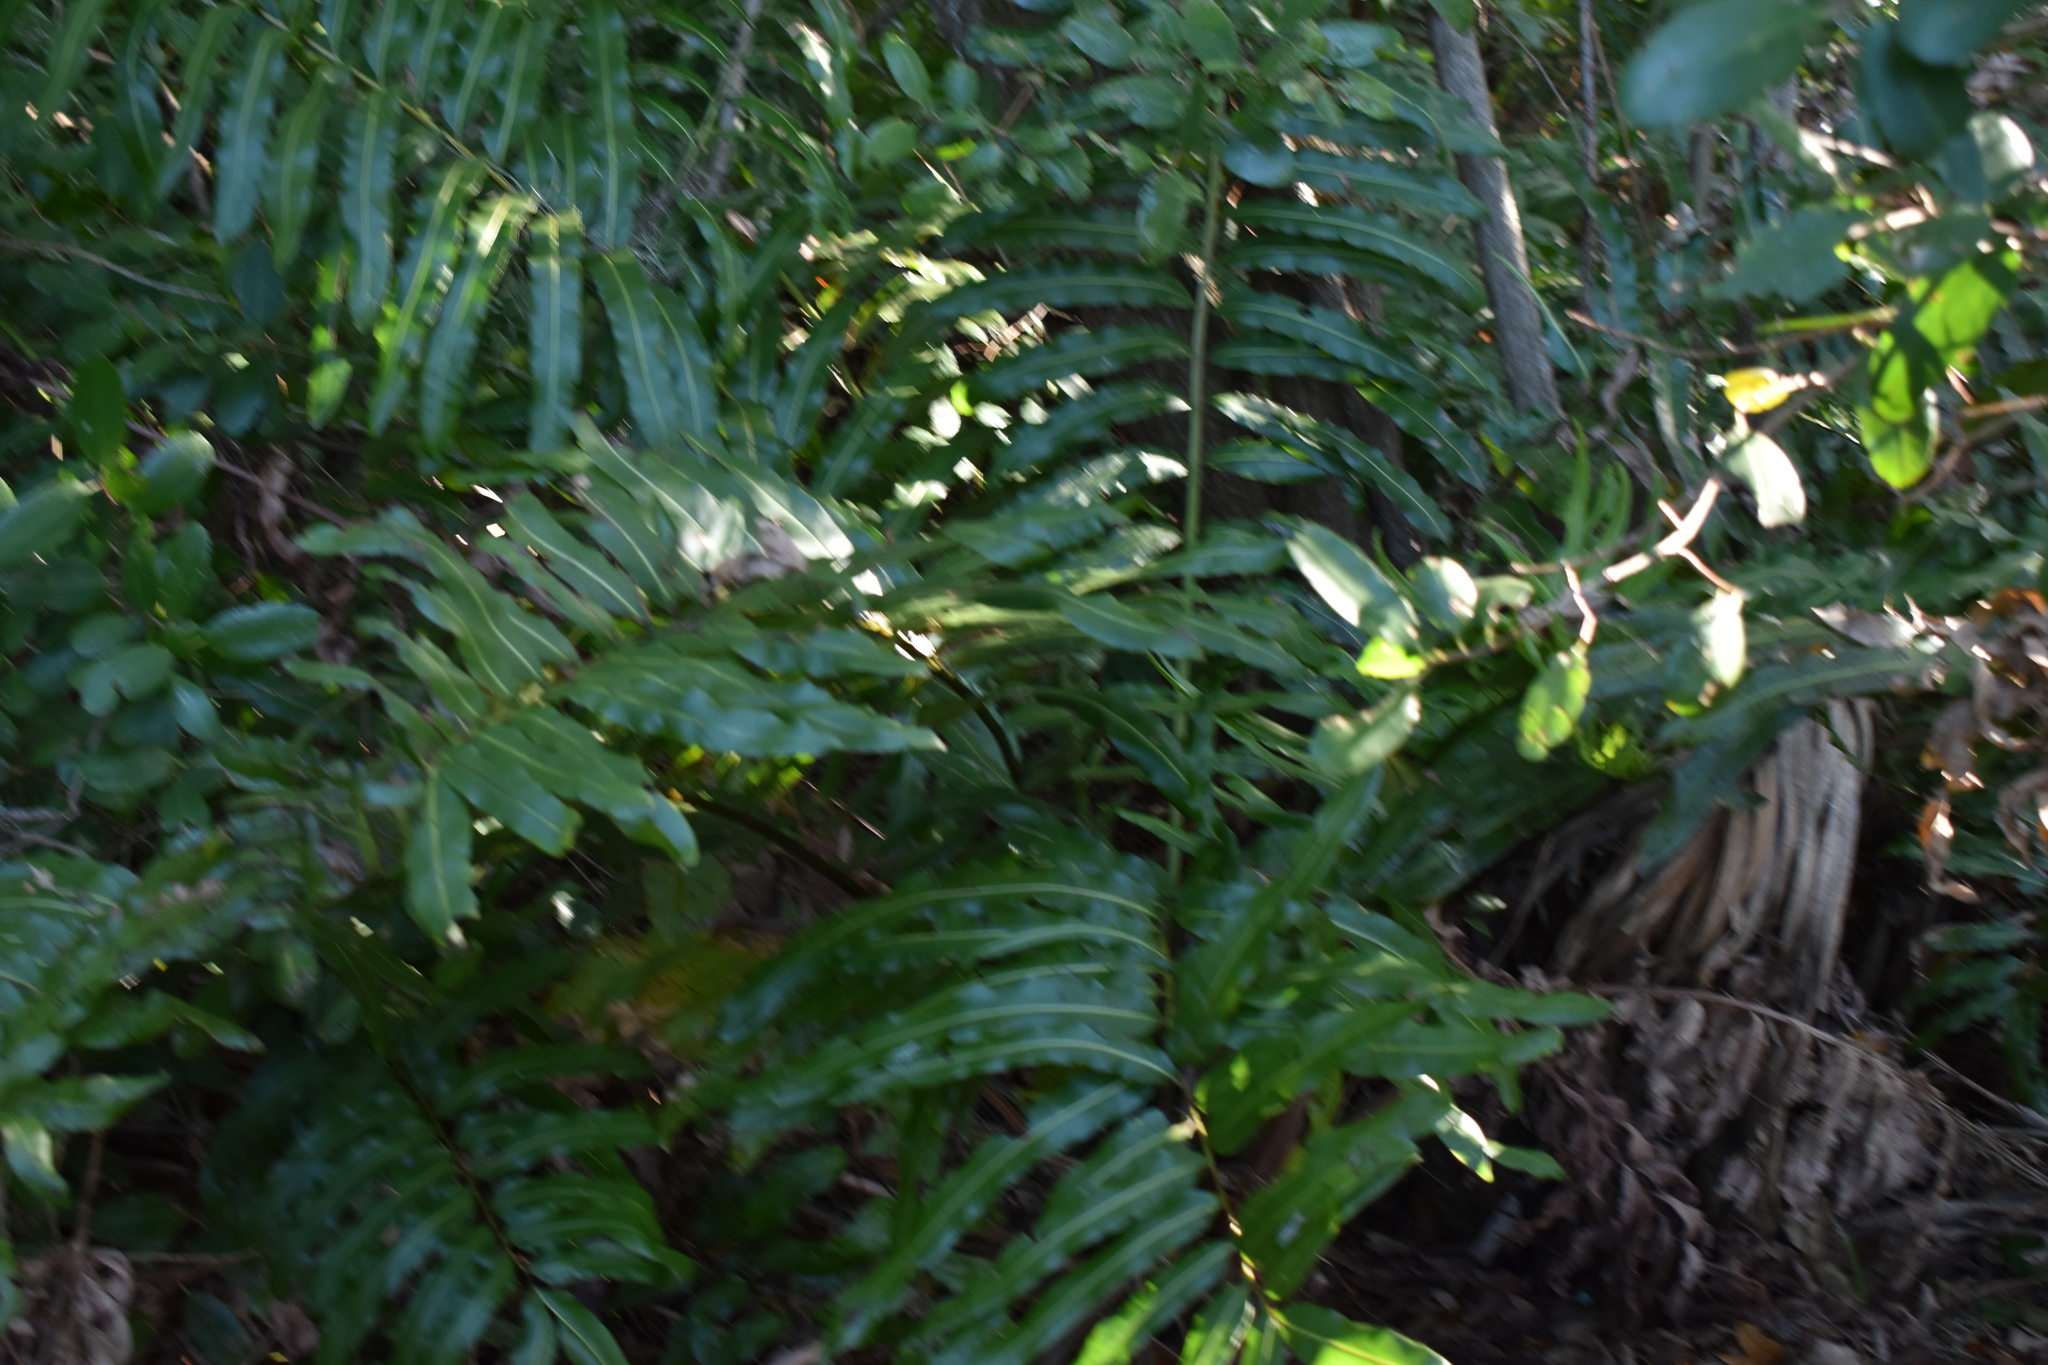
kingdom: Plantae
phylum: Tracheophyta
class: Polypodiopsida
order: Polypodiales
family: Pteridaceae
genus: Acrostichum
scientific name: Acrostichum danaeifolium
